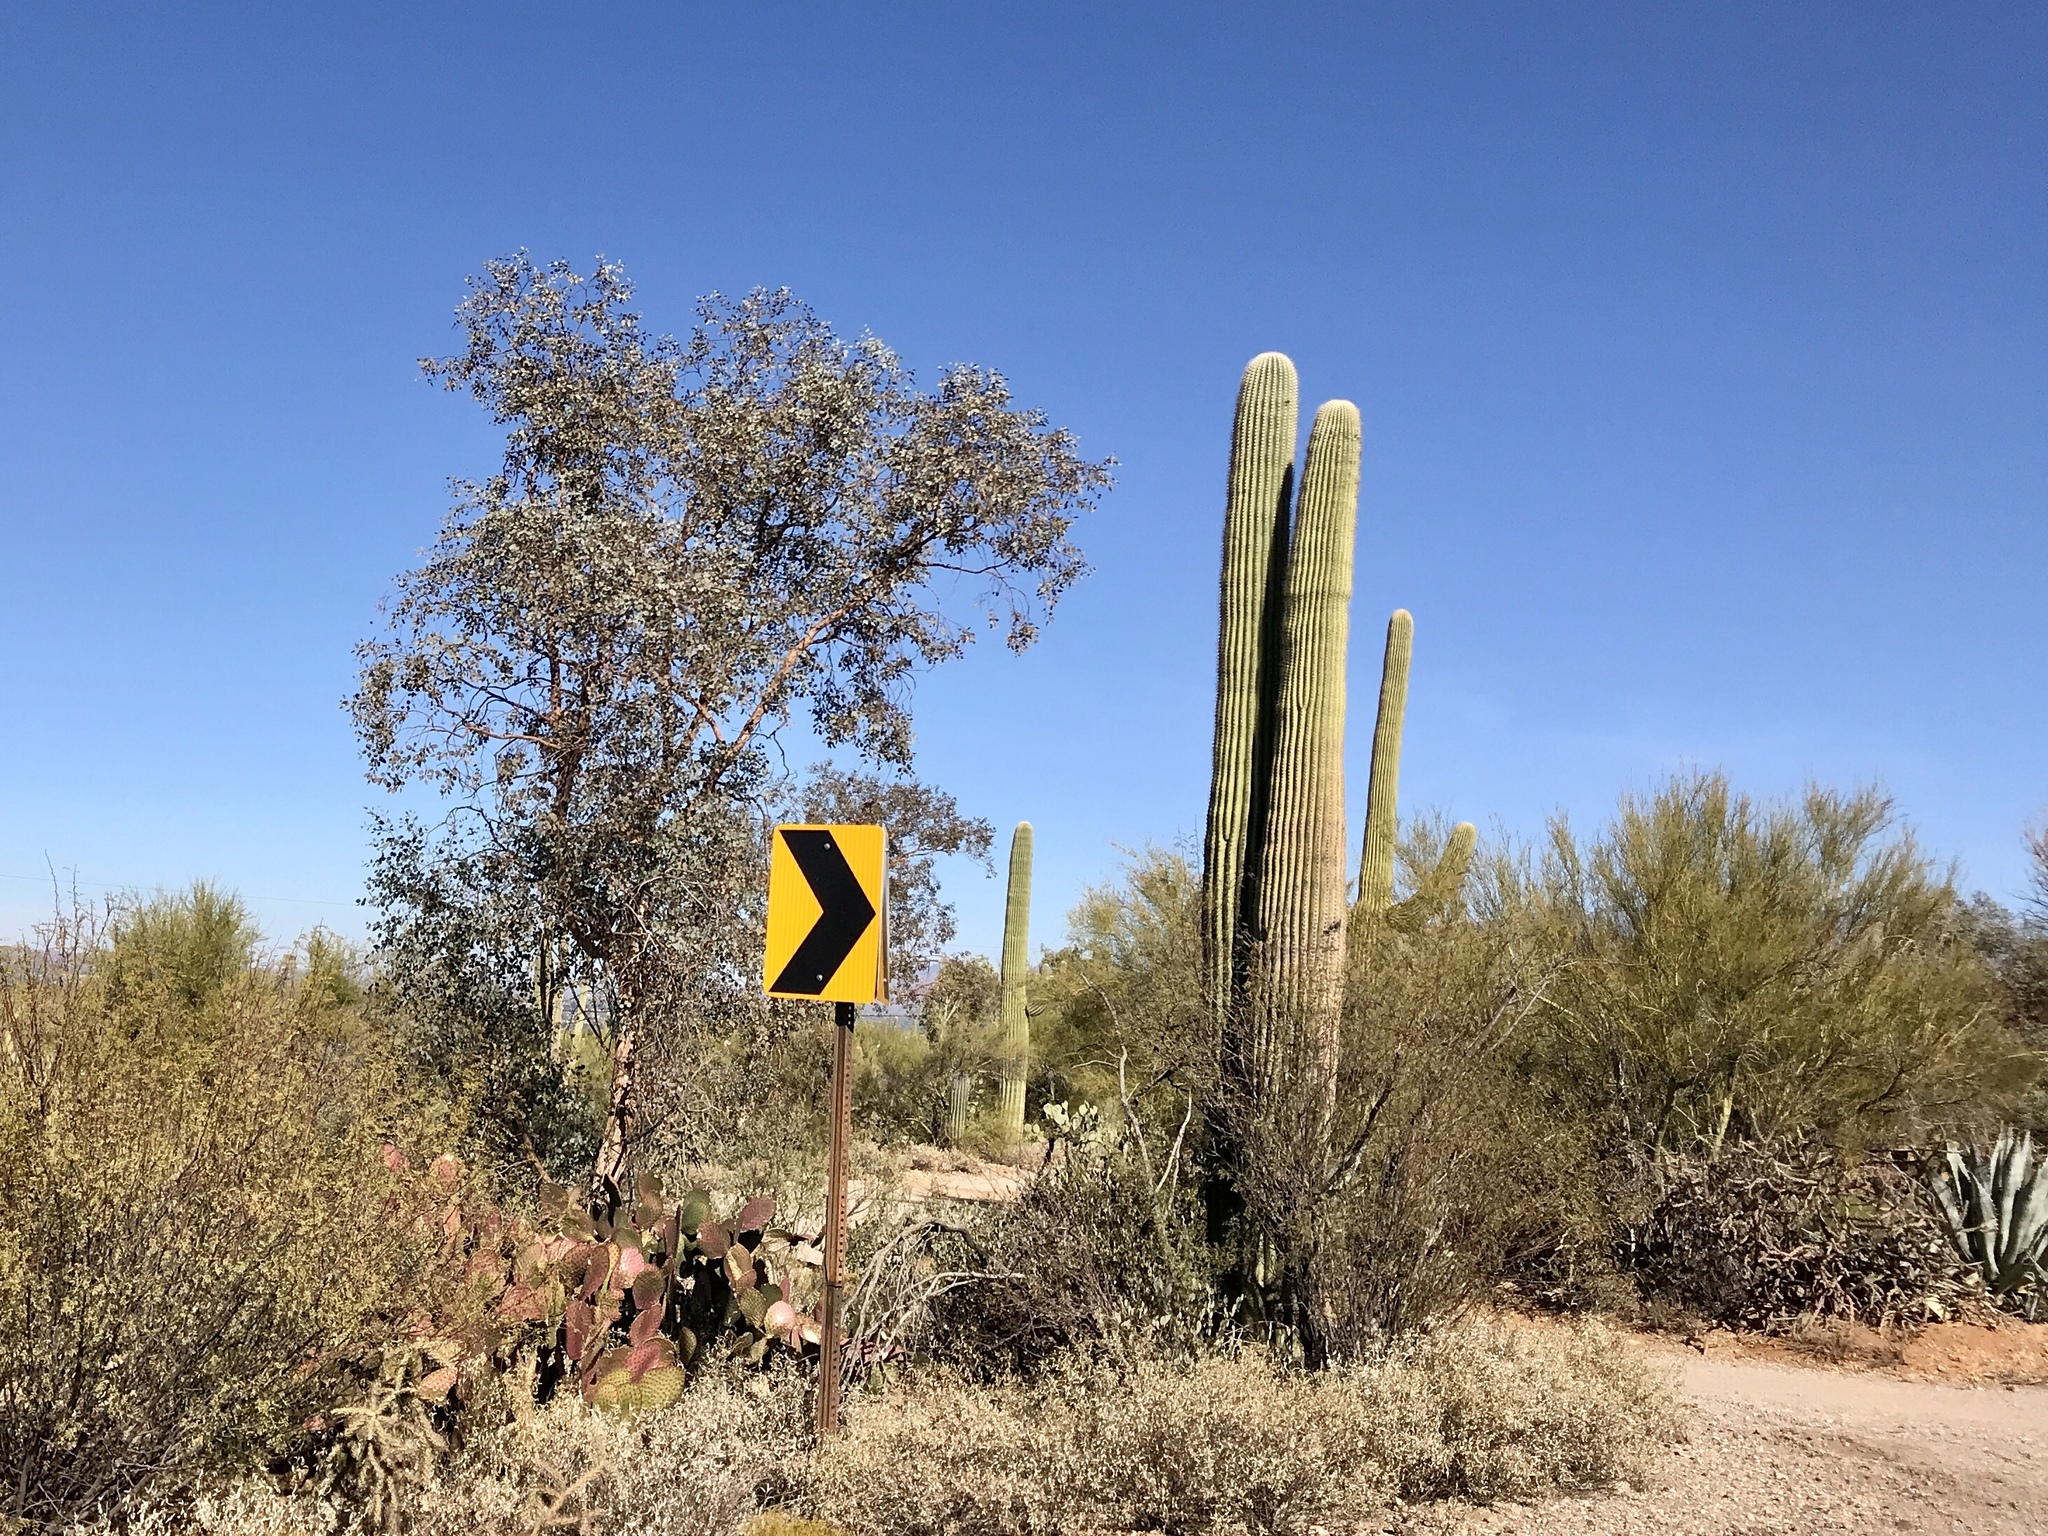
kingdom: Plantae
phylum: Tracheophyta
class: Magnoliopsida
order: Caryophyllales
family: Cactaceae
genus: Carnegiea
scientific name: Carnegiea gigantea
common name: Saguaro
